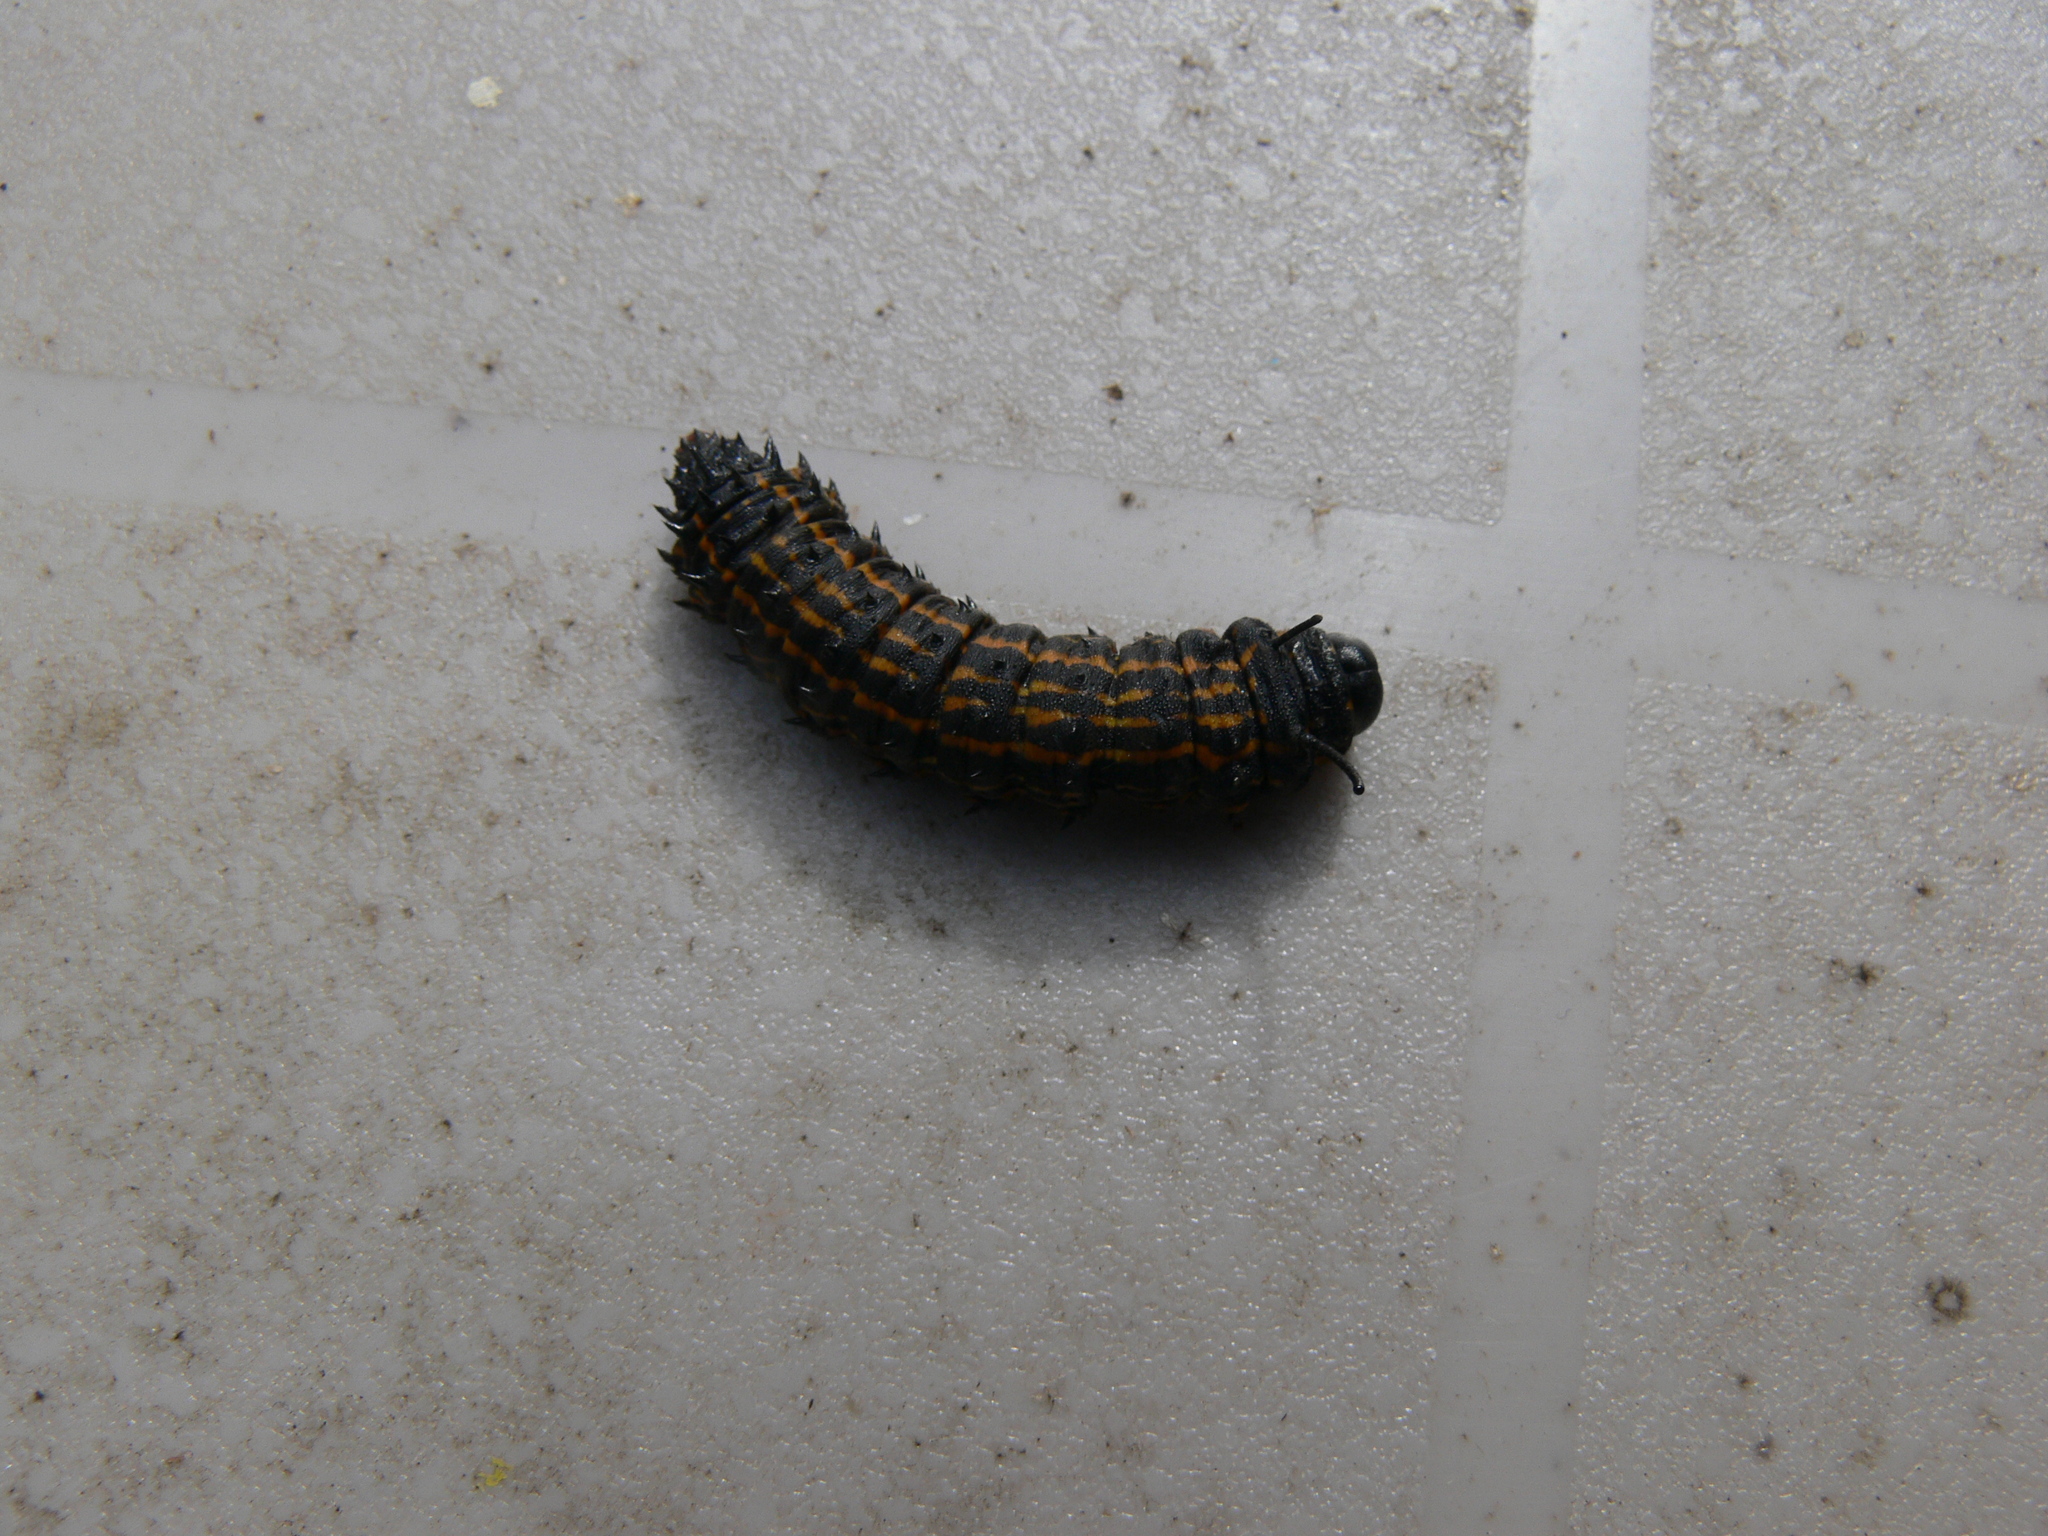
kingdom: Animalia
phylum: Arthropoda
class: Insecta
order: Lepidoptera
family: Saturniidae
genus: Anisota
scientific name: Anisota senatoria
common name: Orange-striped oakworm moth
